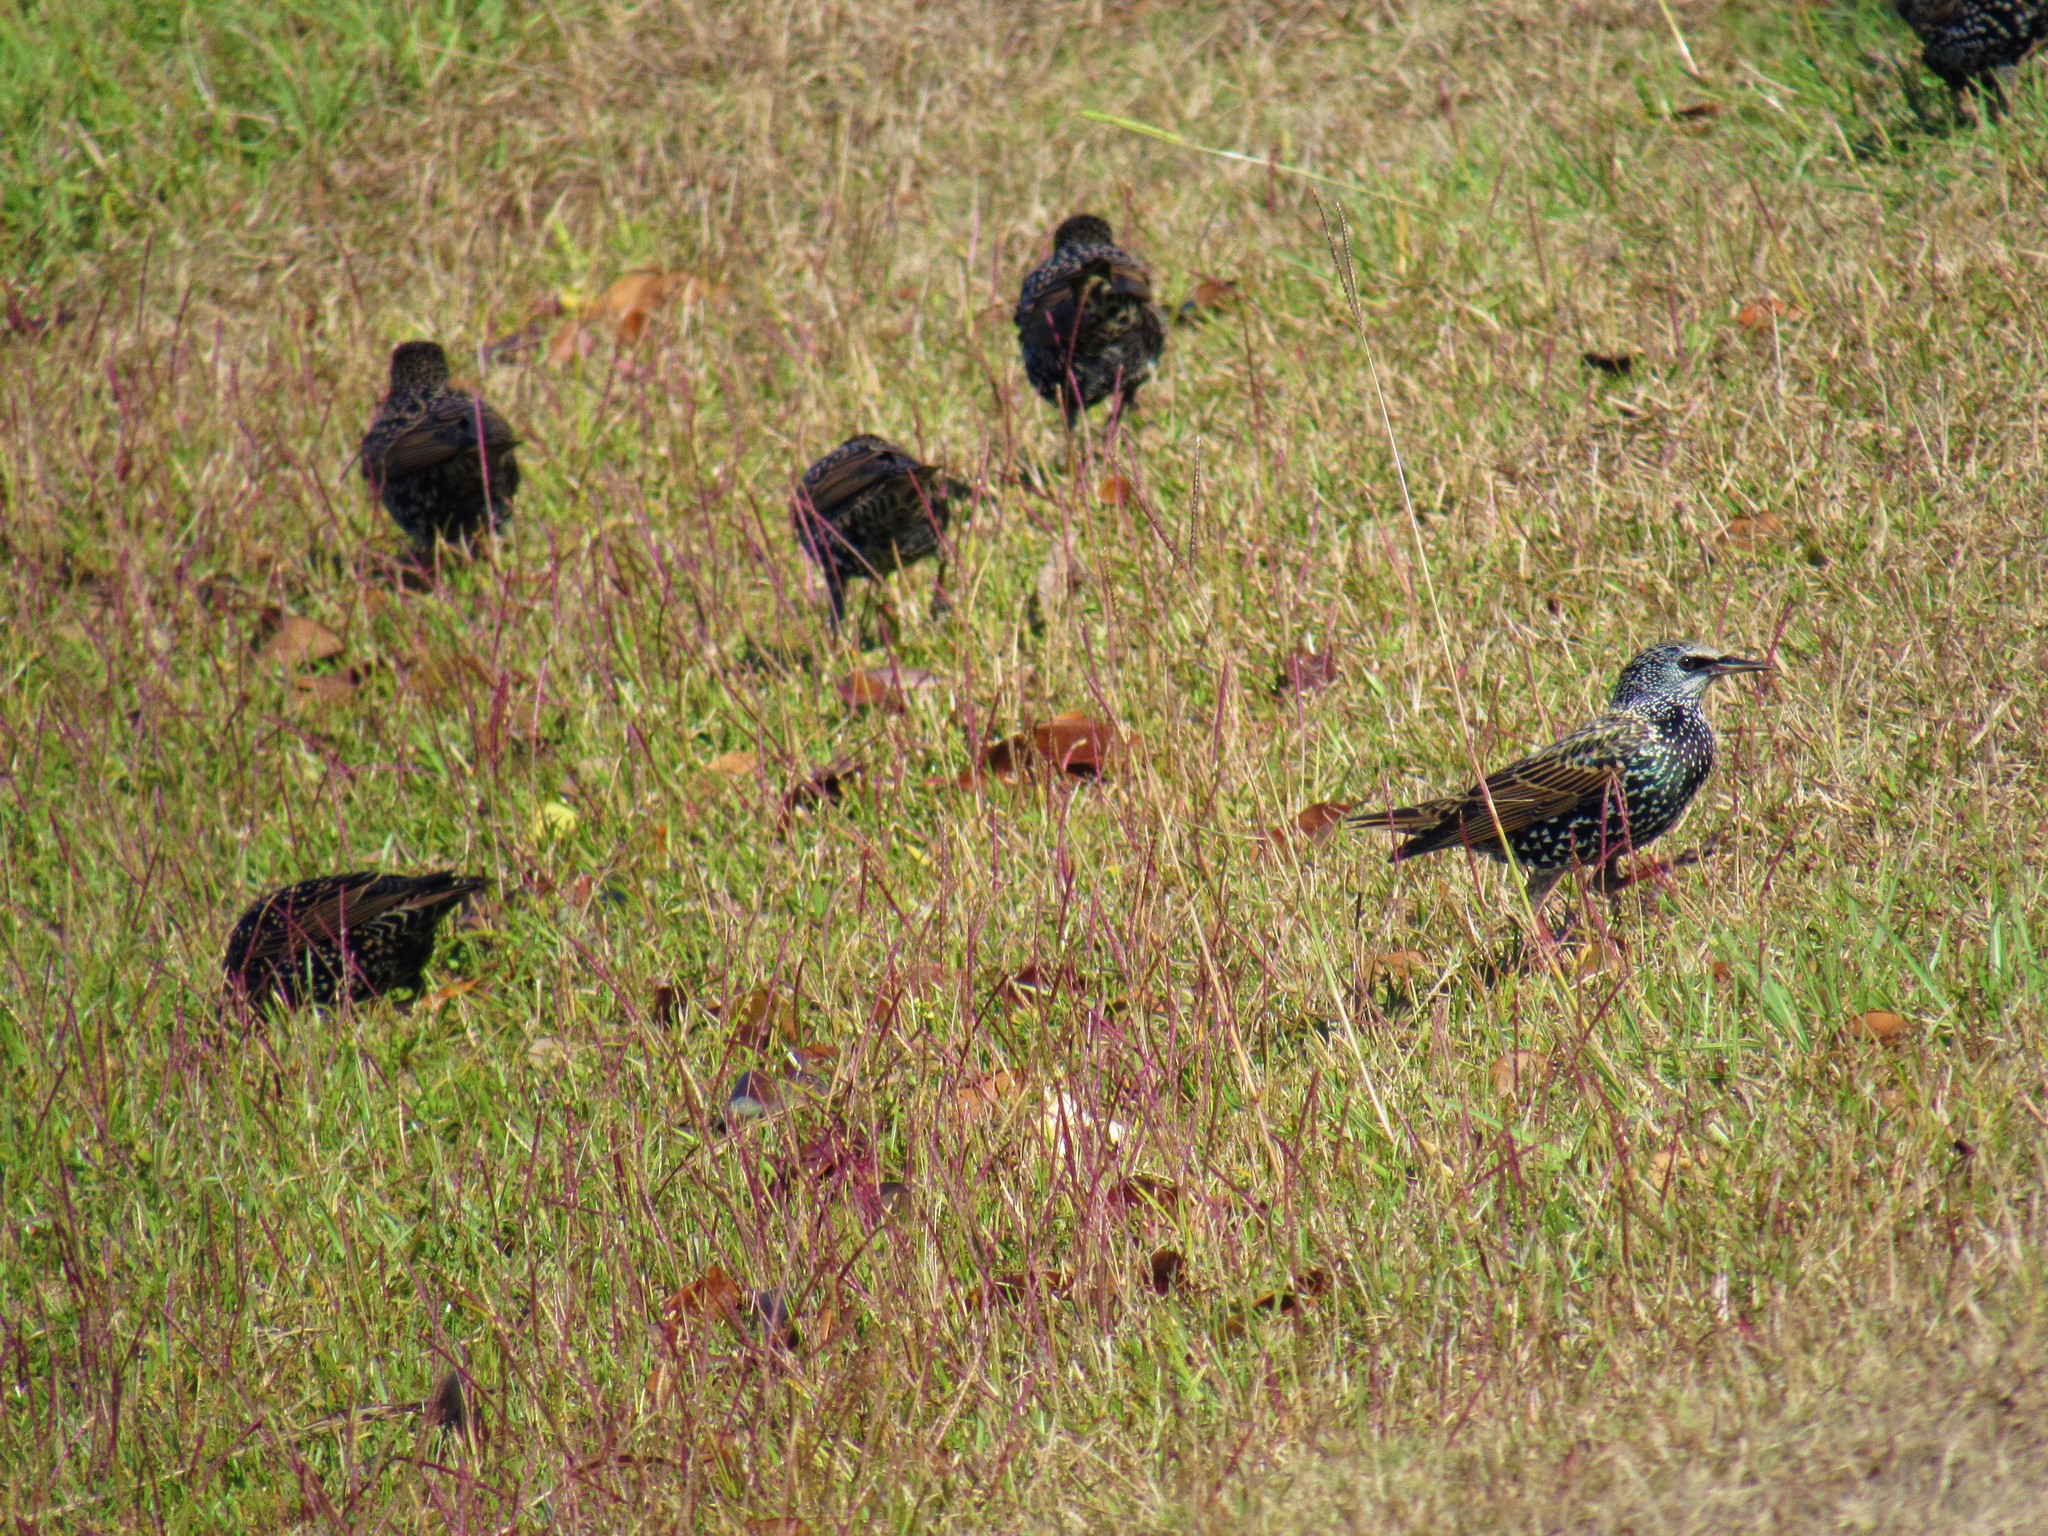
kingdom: Animalia
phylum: Chordata
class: Aves
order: Passeriformes
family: Sturnidae
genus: Sturnus
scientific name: Sturnus vulgaris
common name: Common starling
